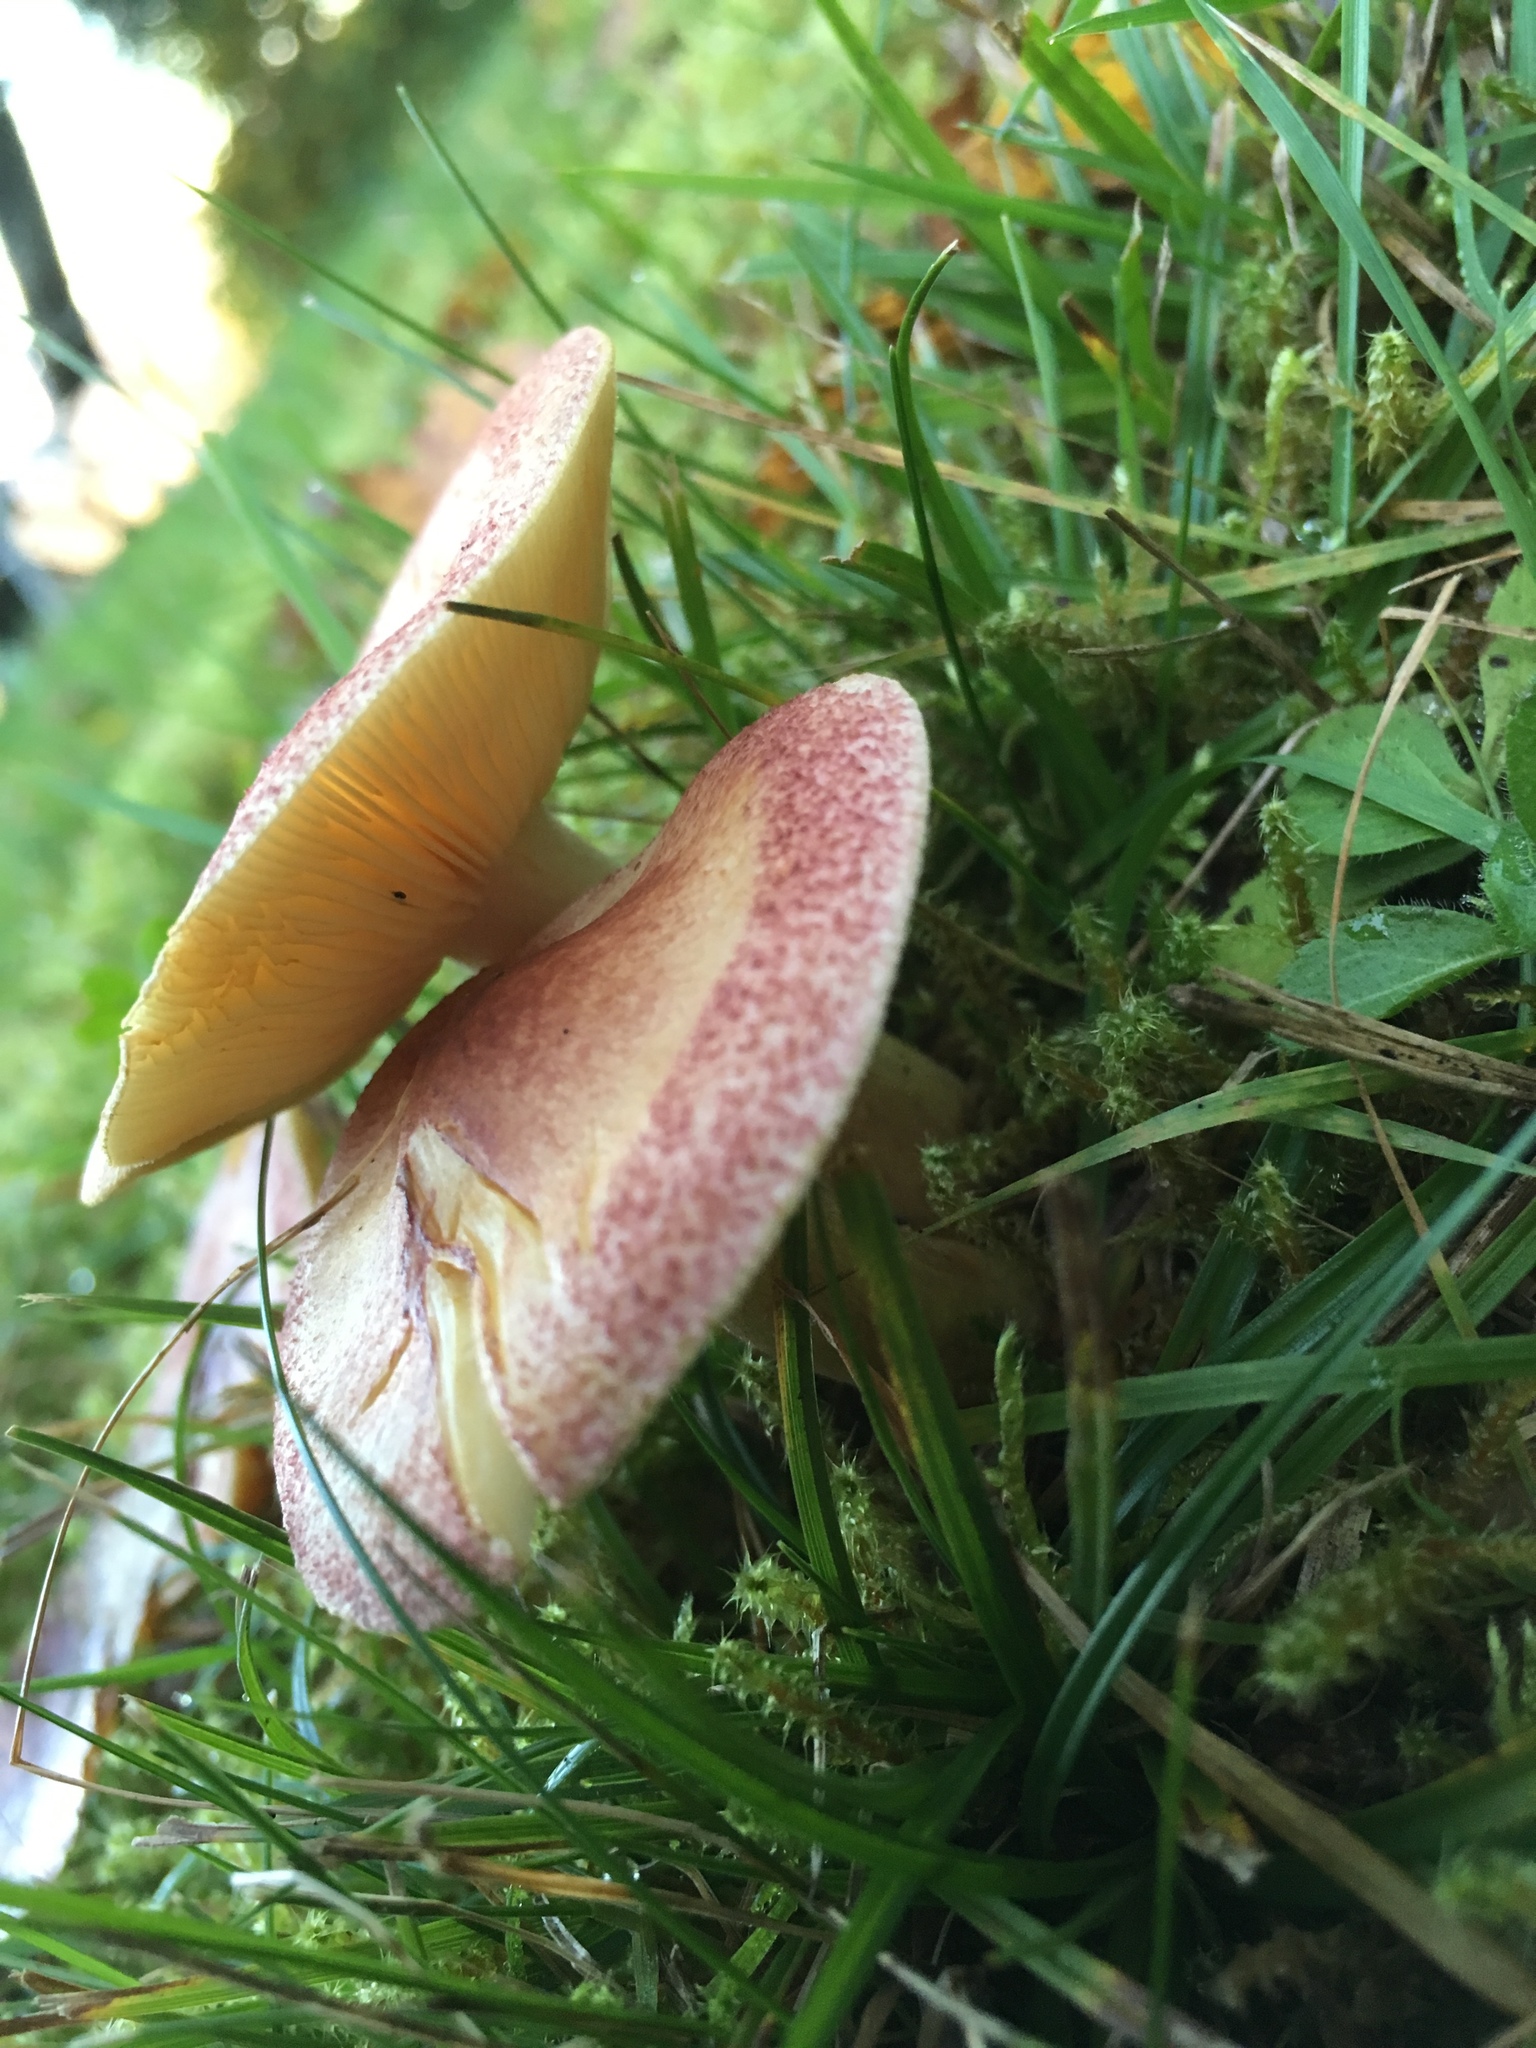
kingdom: Fungi
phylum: Basidiomycota
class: Agaricomycetes
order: Agaricales
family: Tricholomataceae
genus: Tricholomopsis
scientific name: Tricholomopsis rutilans
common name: Plums and custard
